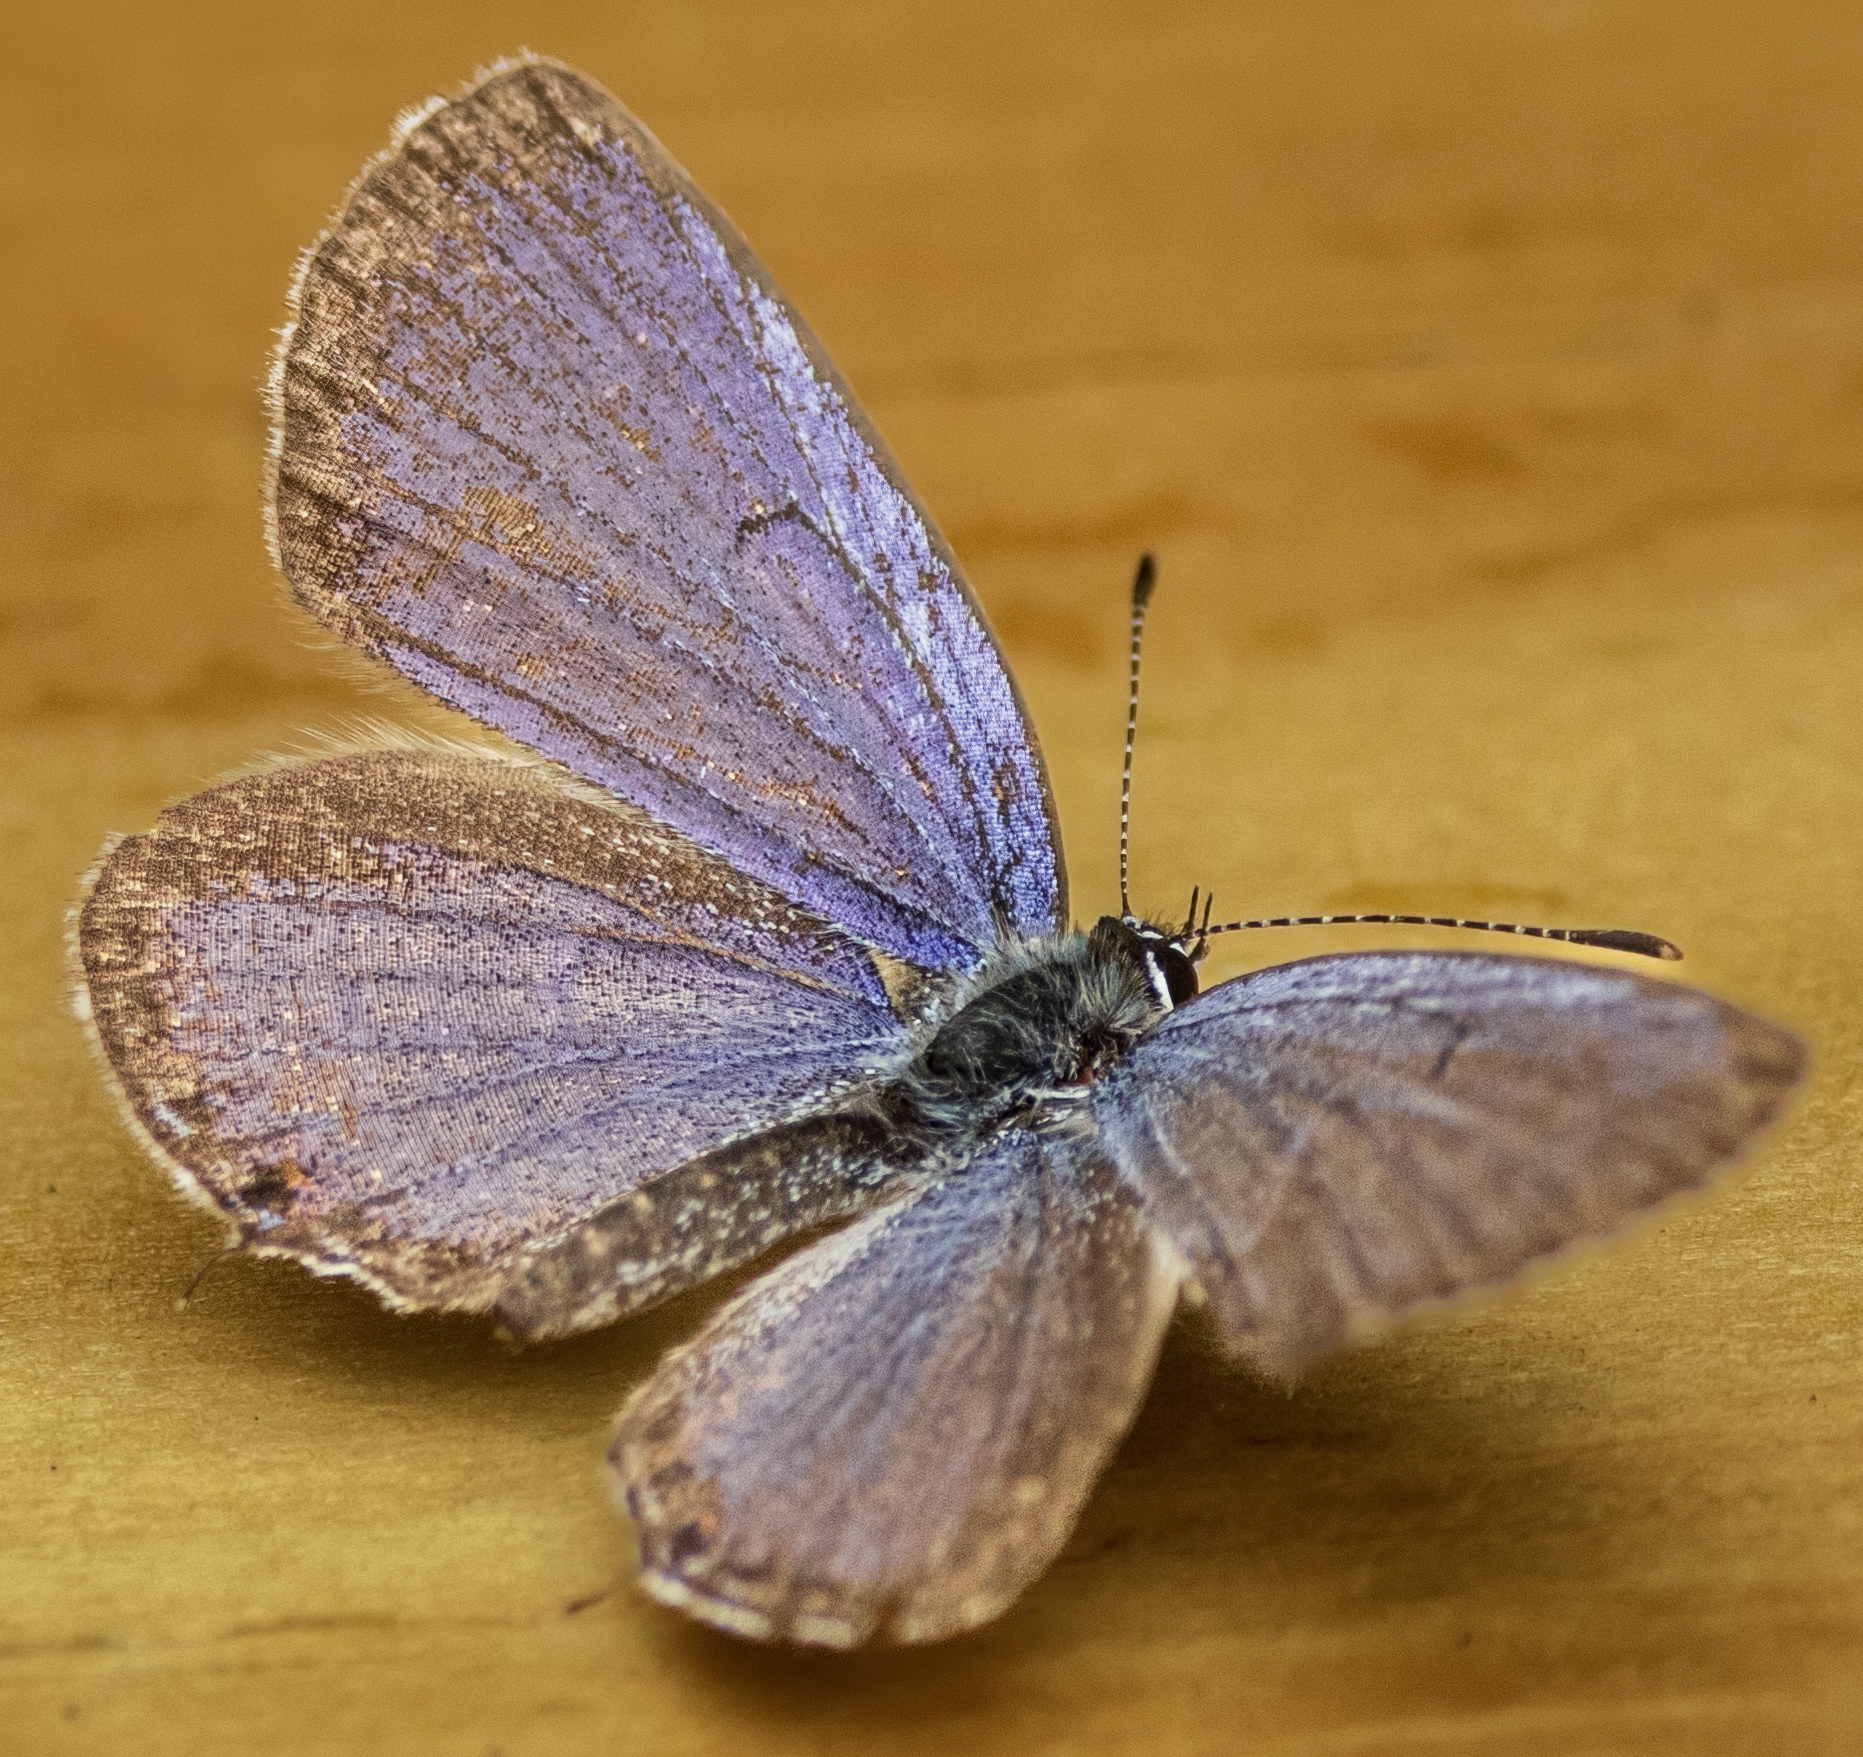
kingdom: Animalia
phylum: Arthropoda
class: Insecta
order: Lepidoptera
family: Lycaenidae
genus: Elkalyce
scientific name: Elkalyce comyntas
